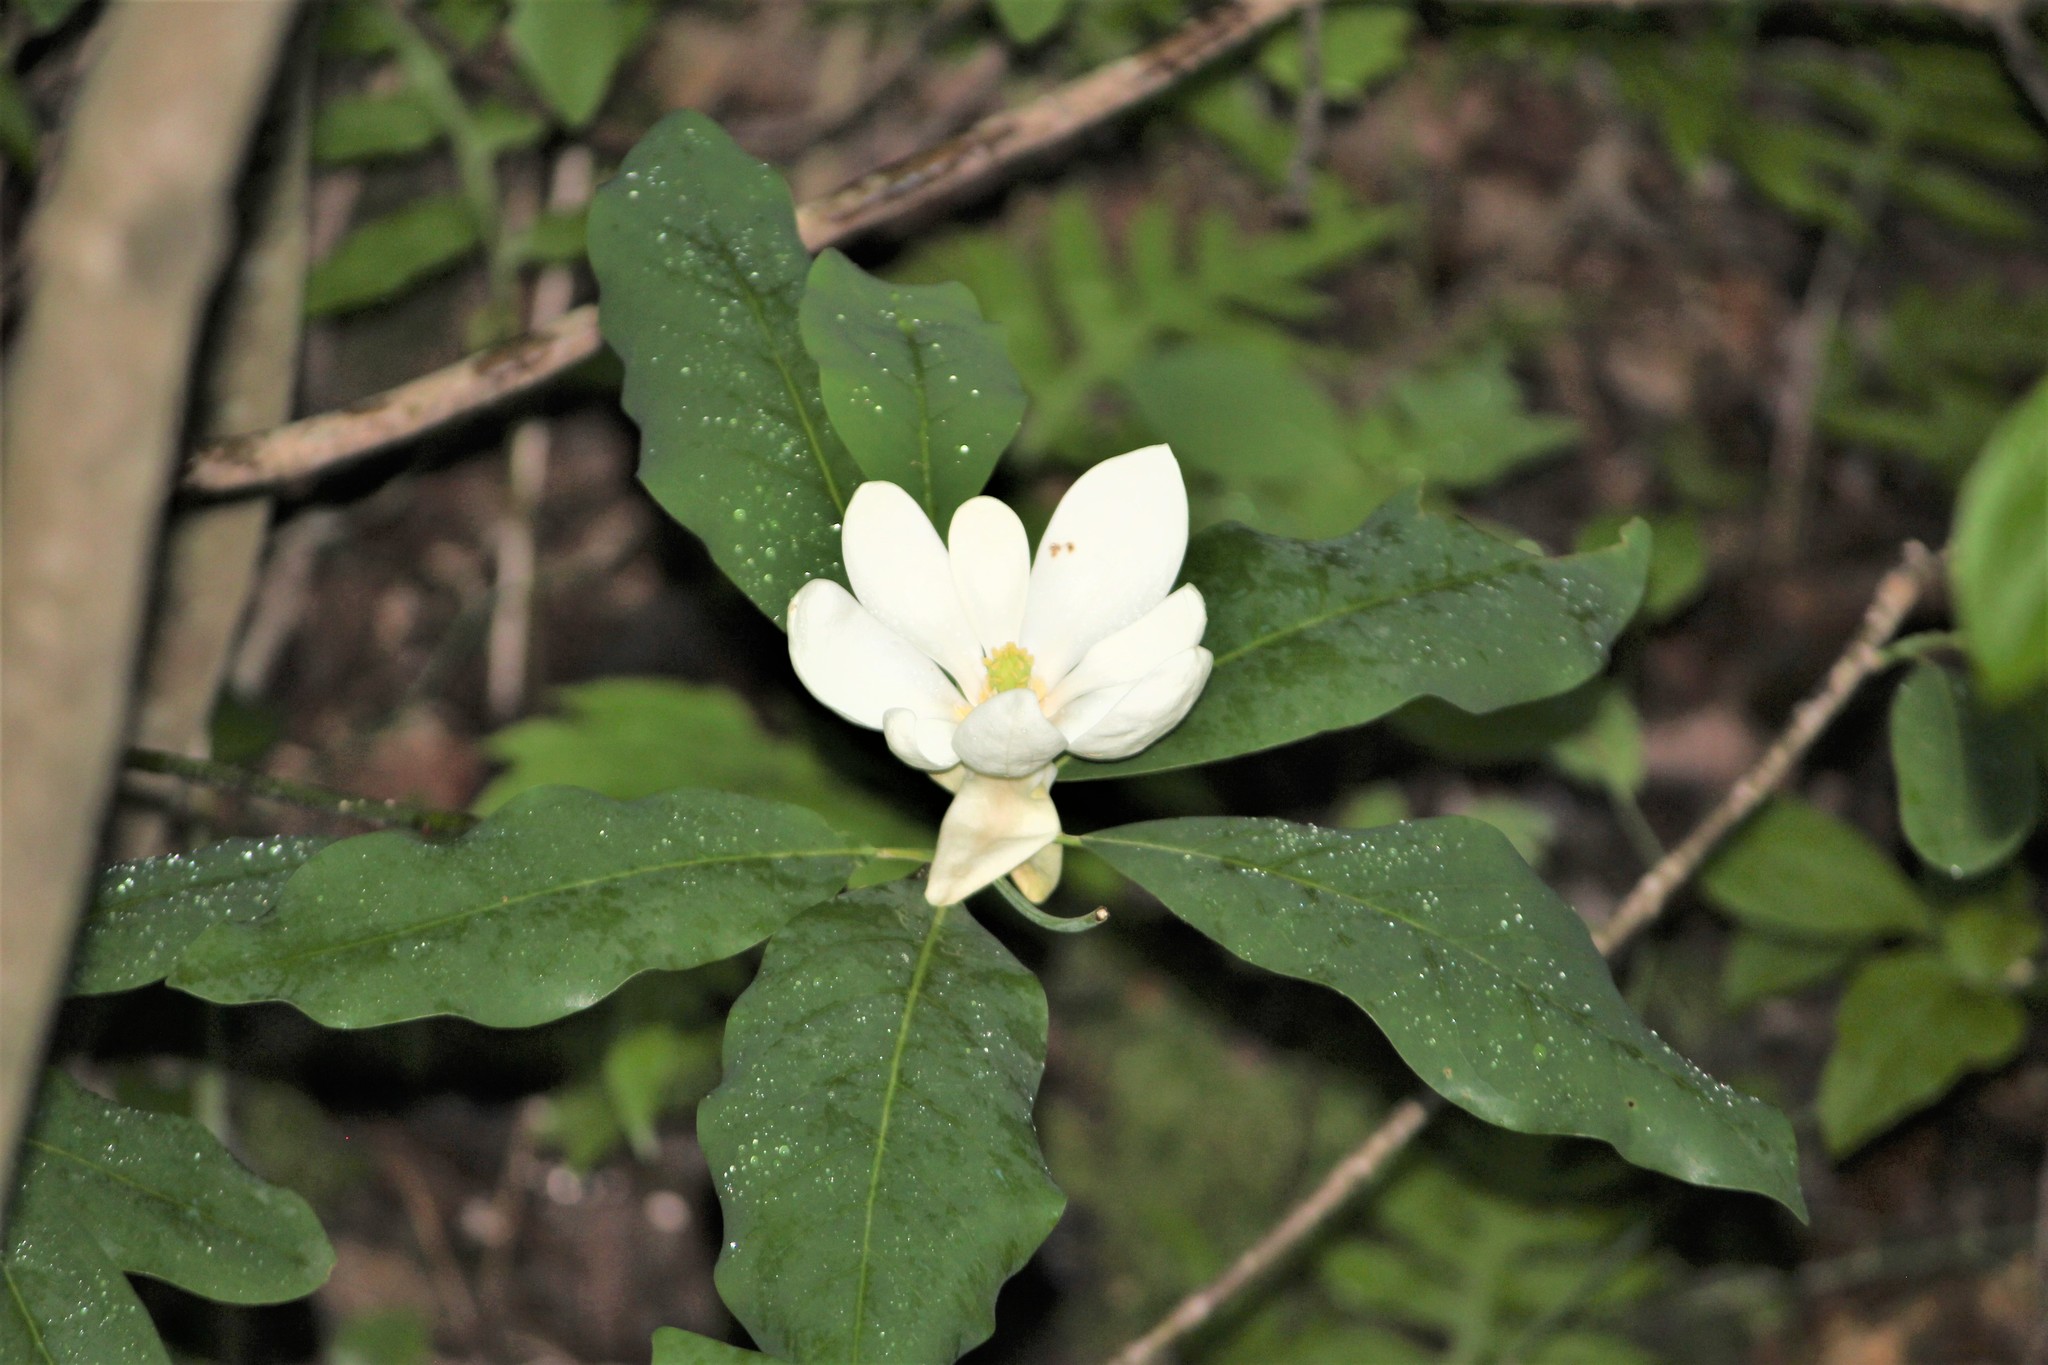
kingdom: Plantae
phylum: Tracheophyta
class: Magnoliopsida
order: Magnoliales
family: Magnoliaceae
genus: Magnolia
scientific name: Magnolia virginiana
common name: Swamp bay
